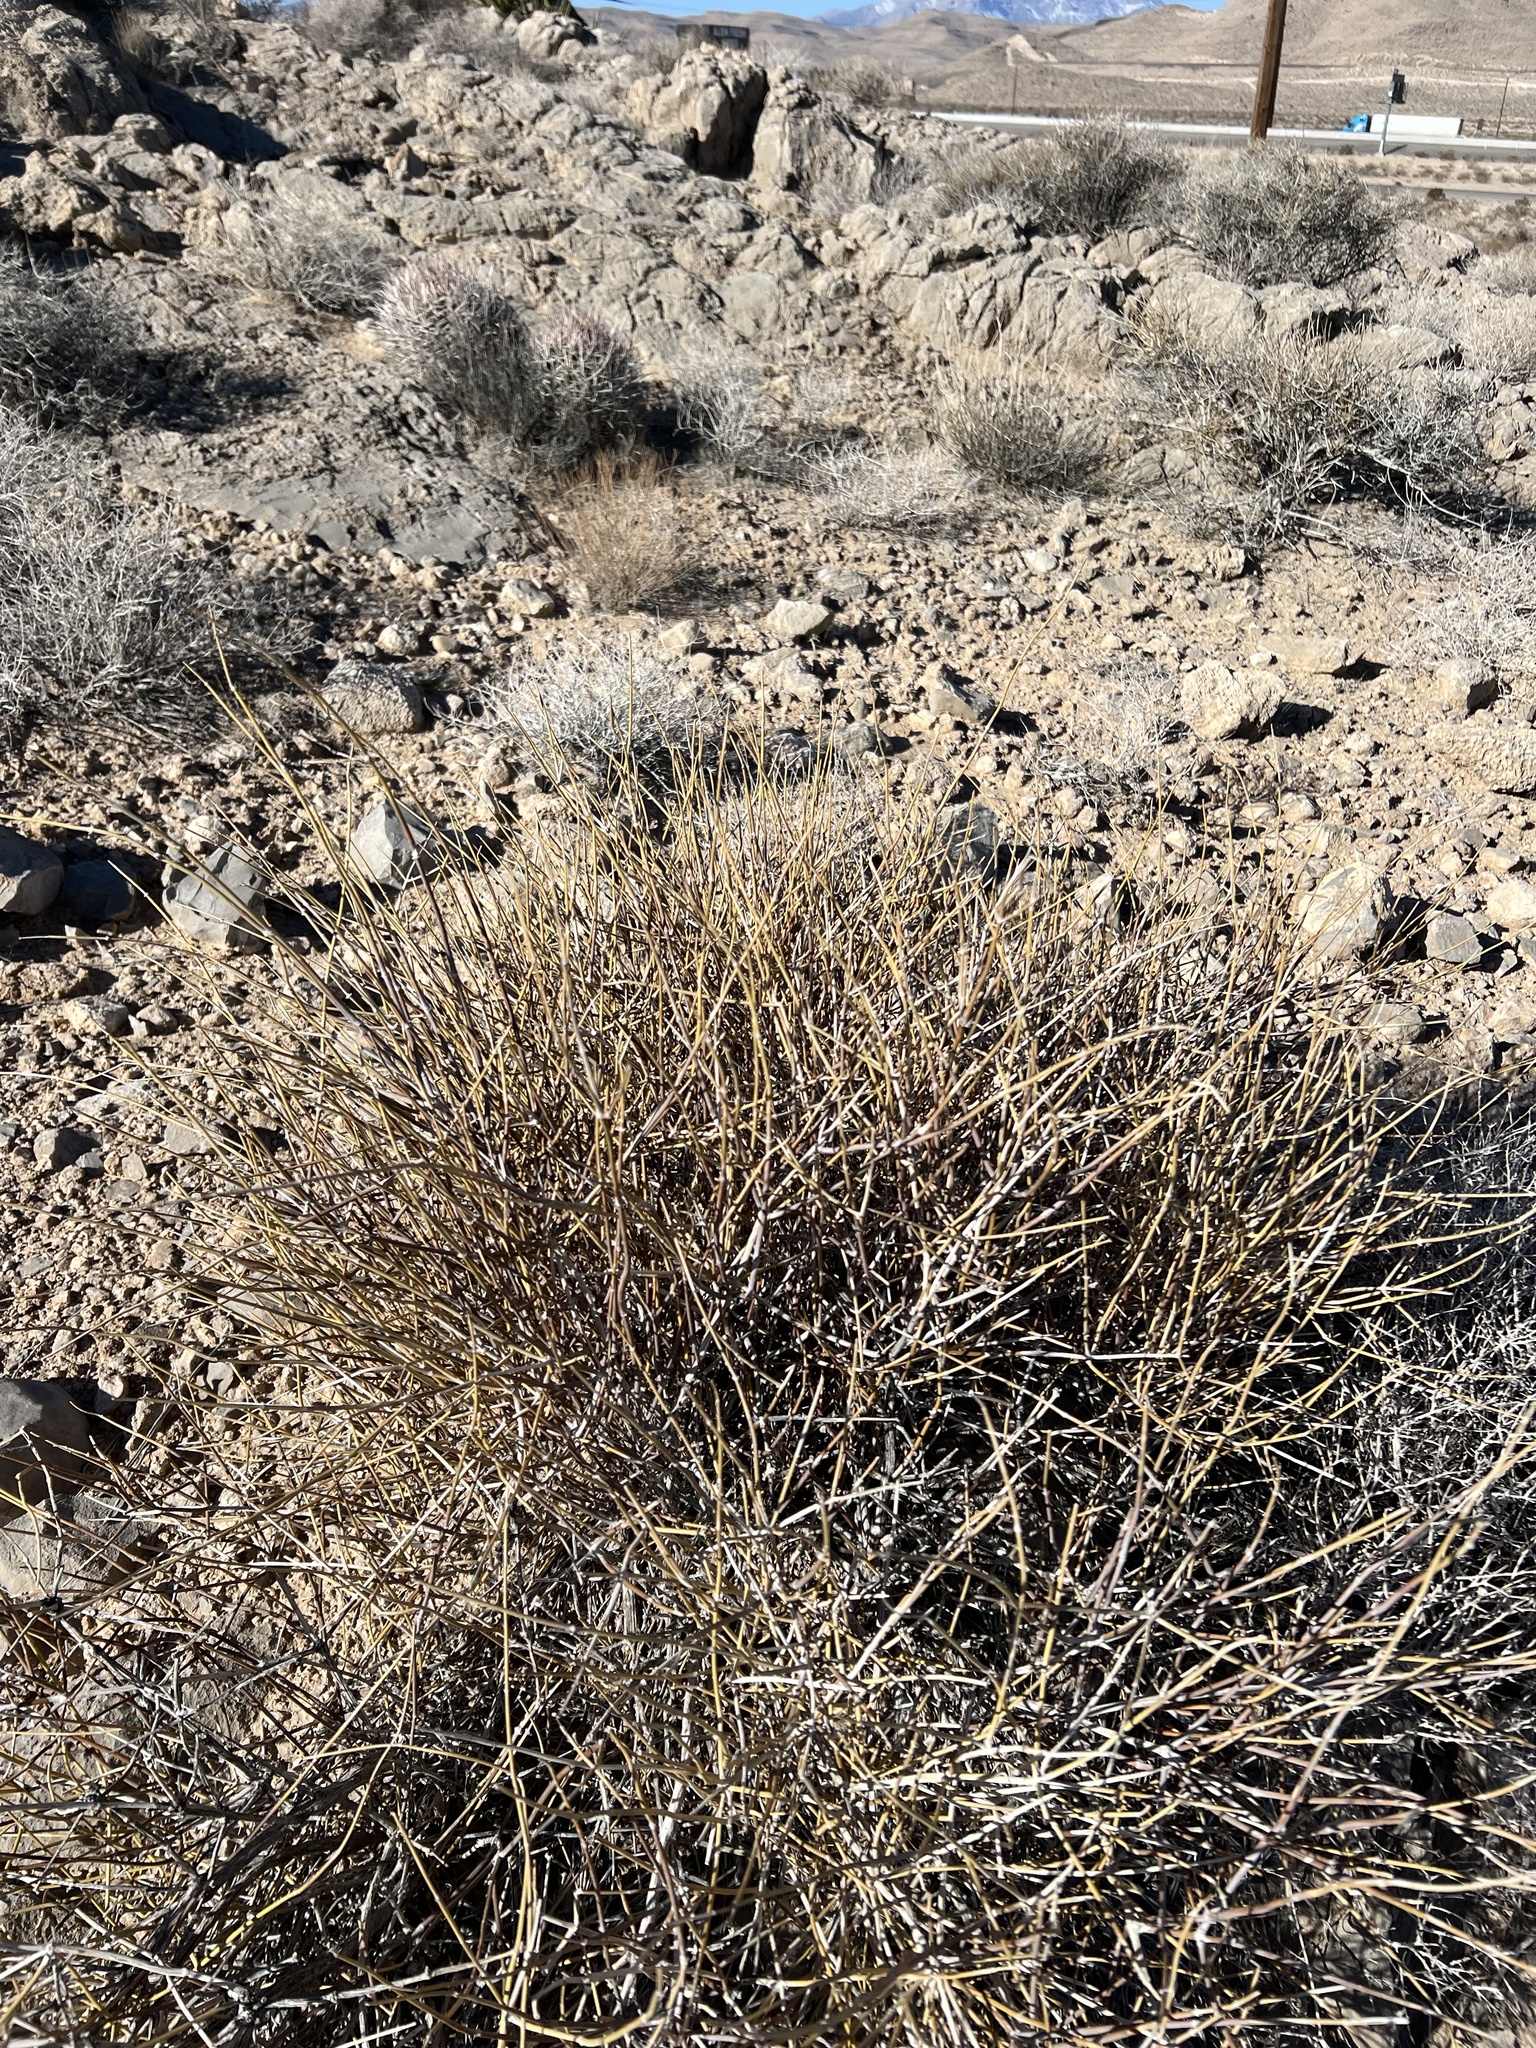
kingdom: Plantae
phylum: Tracheophyta
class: Gnetopsida
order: Ephedrales
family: Ephedraceae
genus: Ephedra
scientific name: Ephedra nevadensis
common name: Gray ephedra
